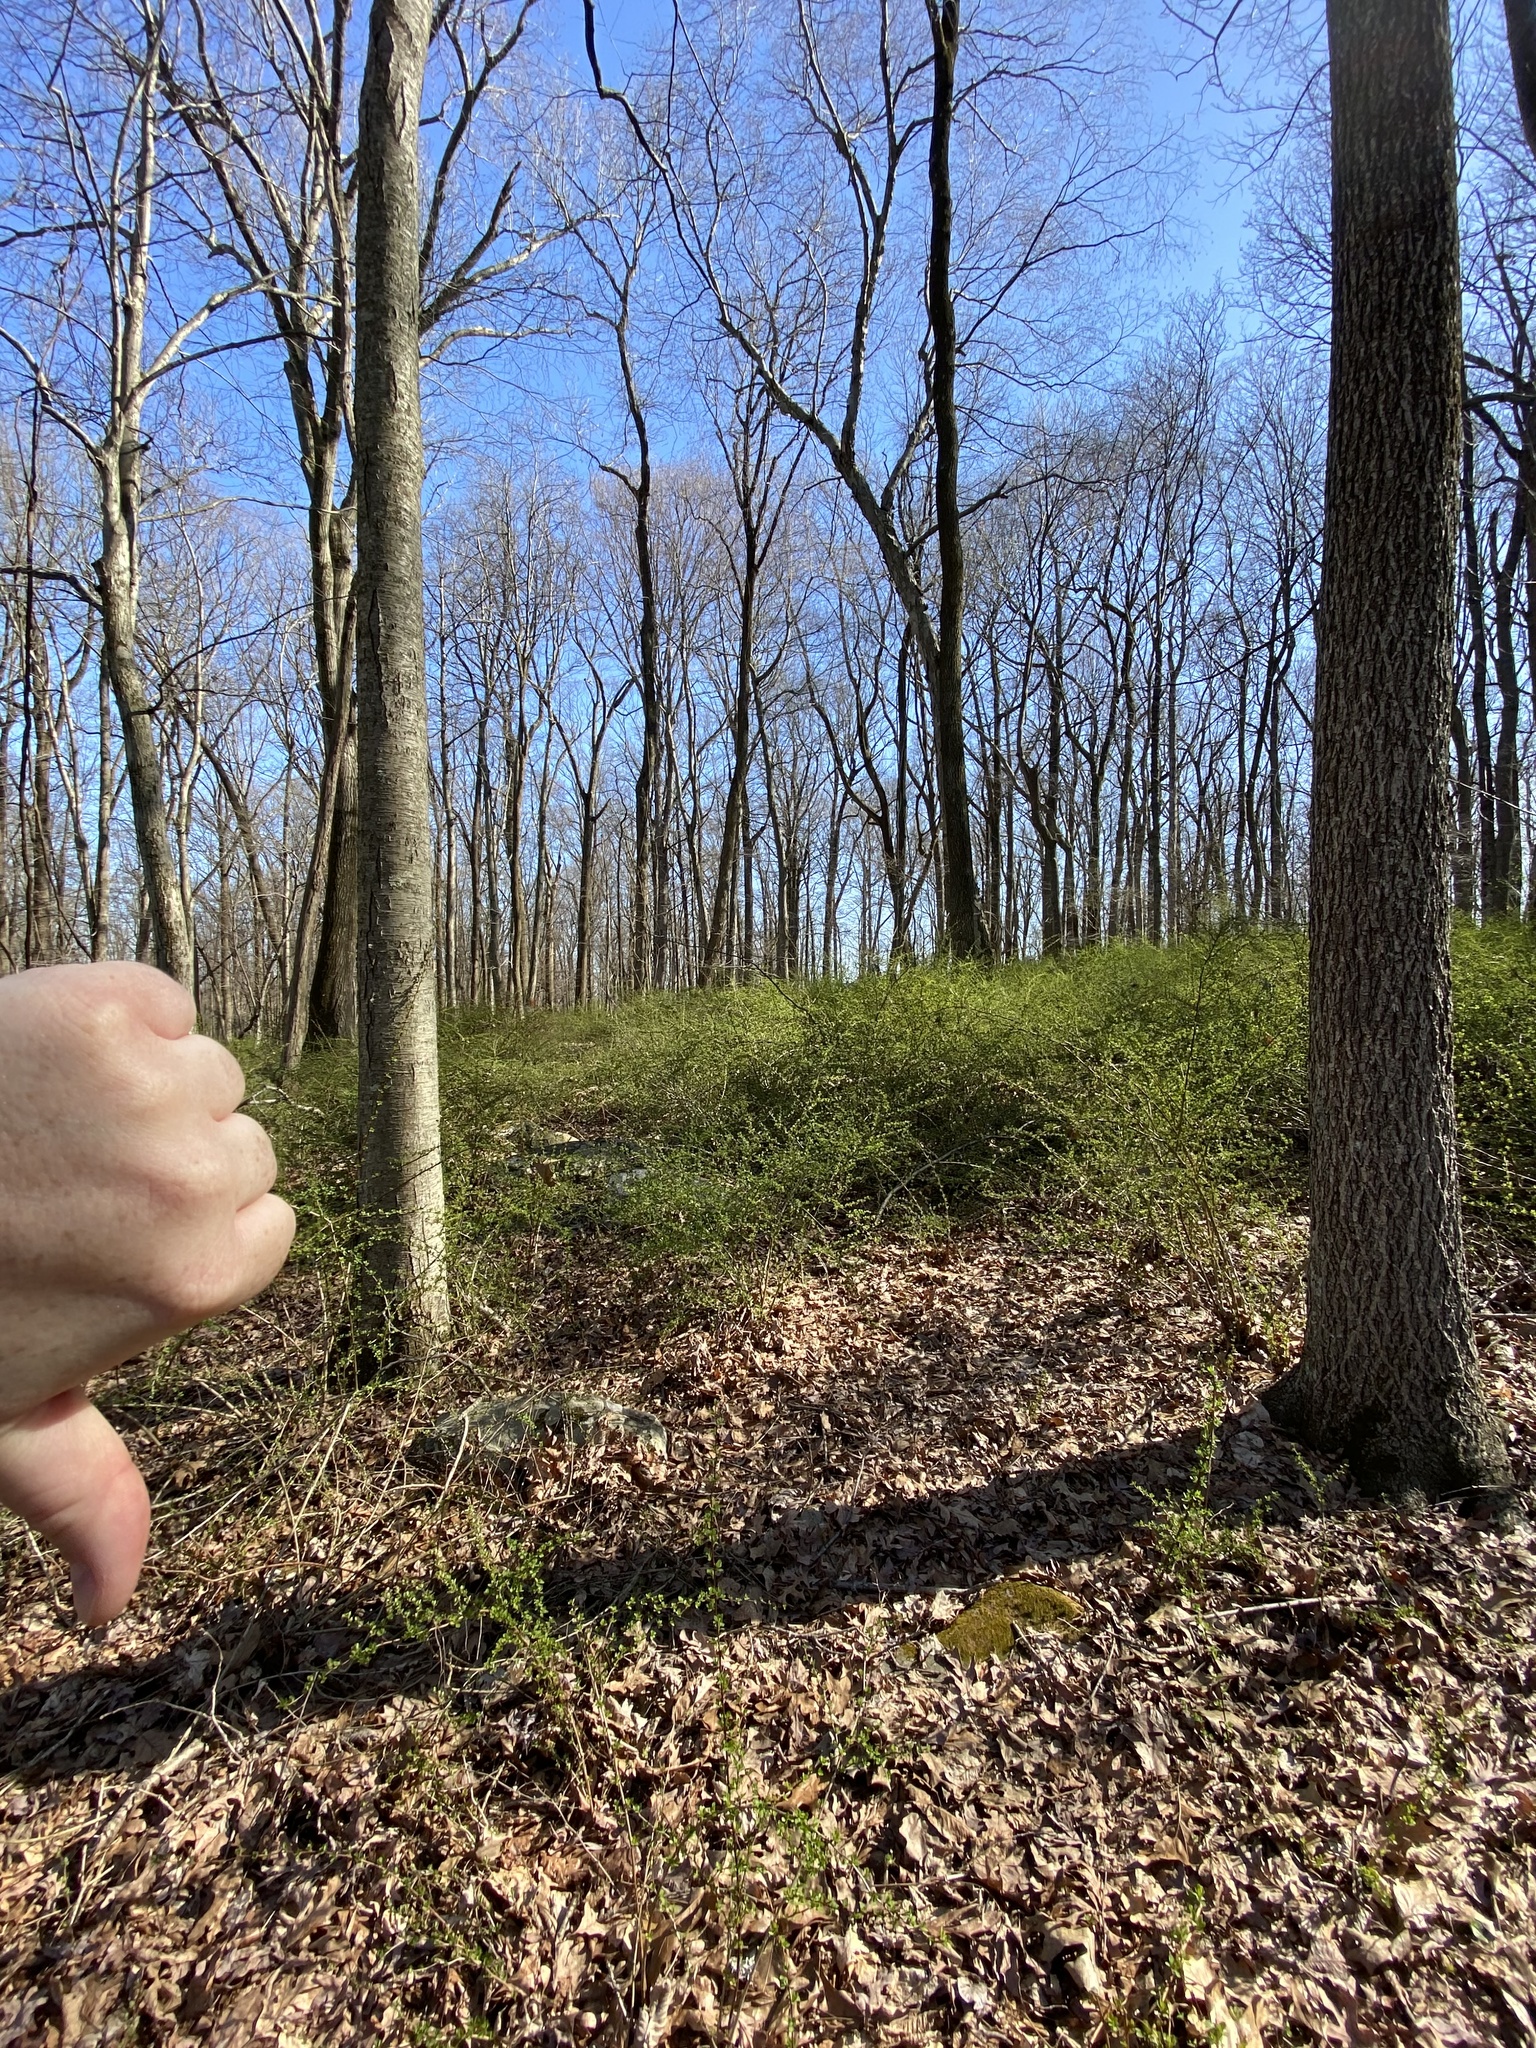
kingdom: Plantae
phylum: Tracheophyta
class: Magnoliopsida
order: Ranunculales
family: Berberidaceae
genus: Berberis
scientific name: Berberis thunbergii
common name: Japanese barberry
